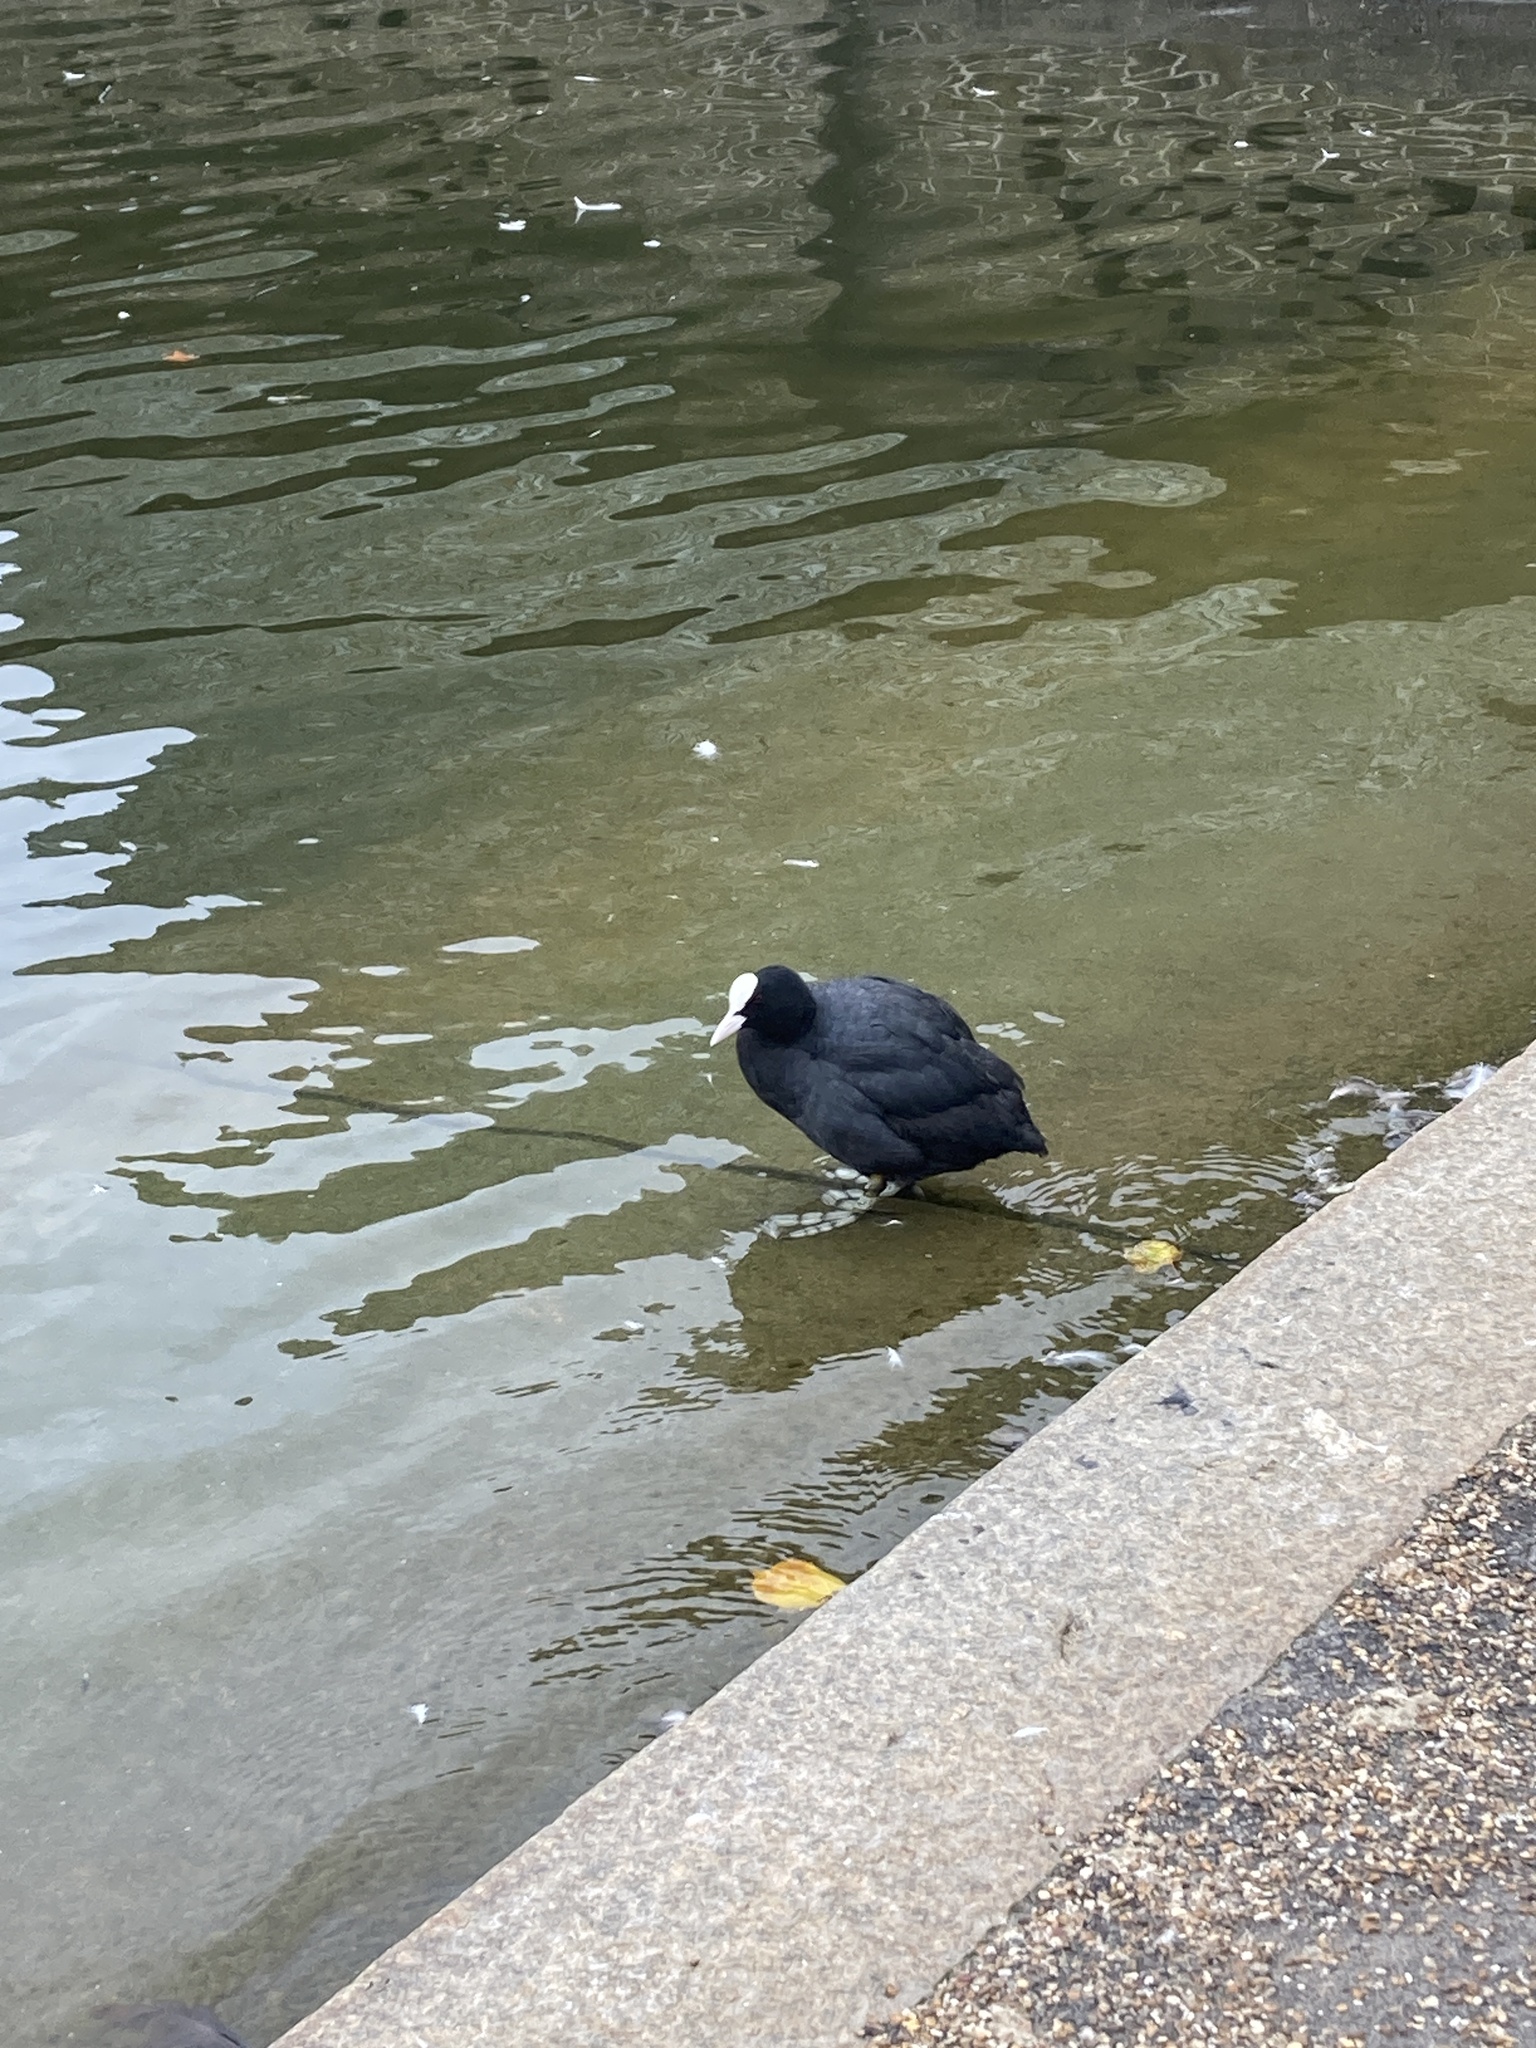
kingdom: Animalia
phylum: Chordata
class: Aves
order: Gruiformes
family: Rallidae
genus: Fulica
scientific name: Fulica atra
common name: Eurasian coot
